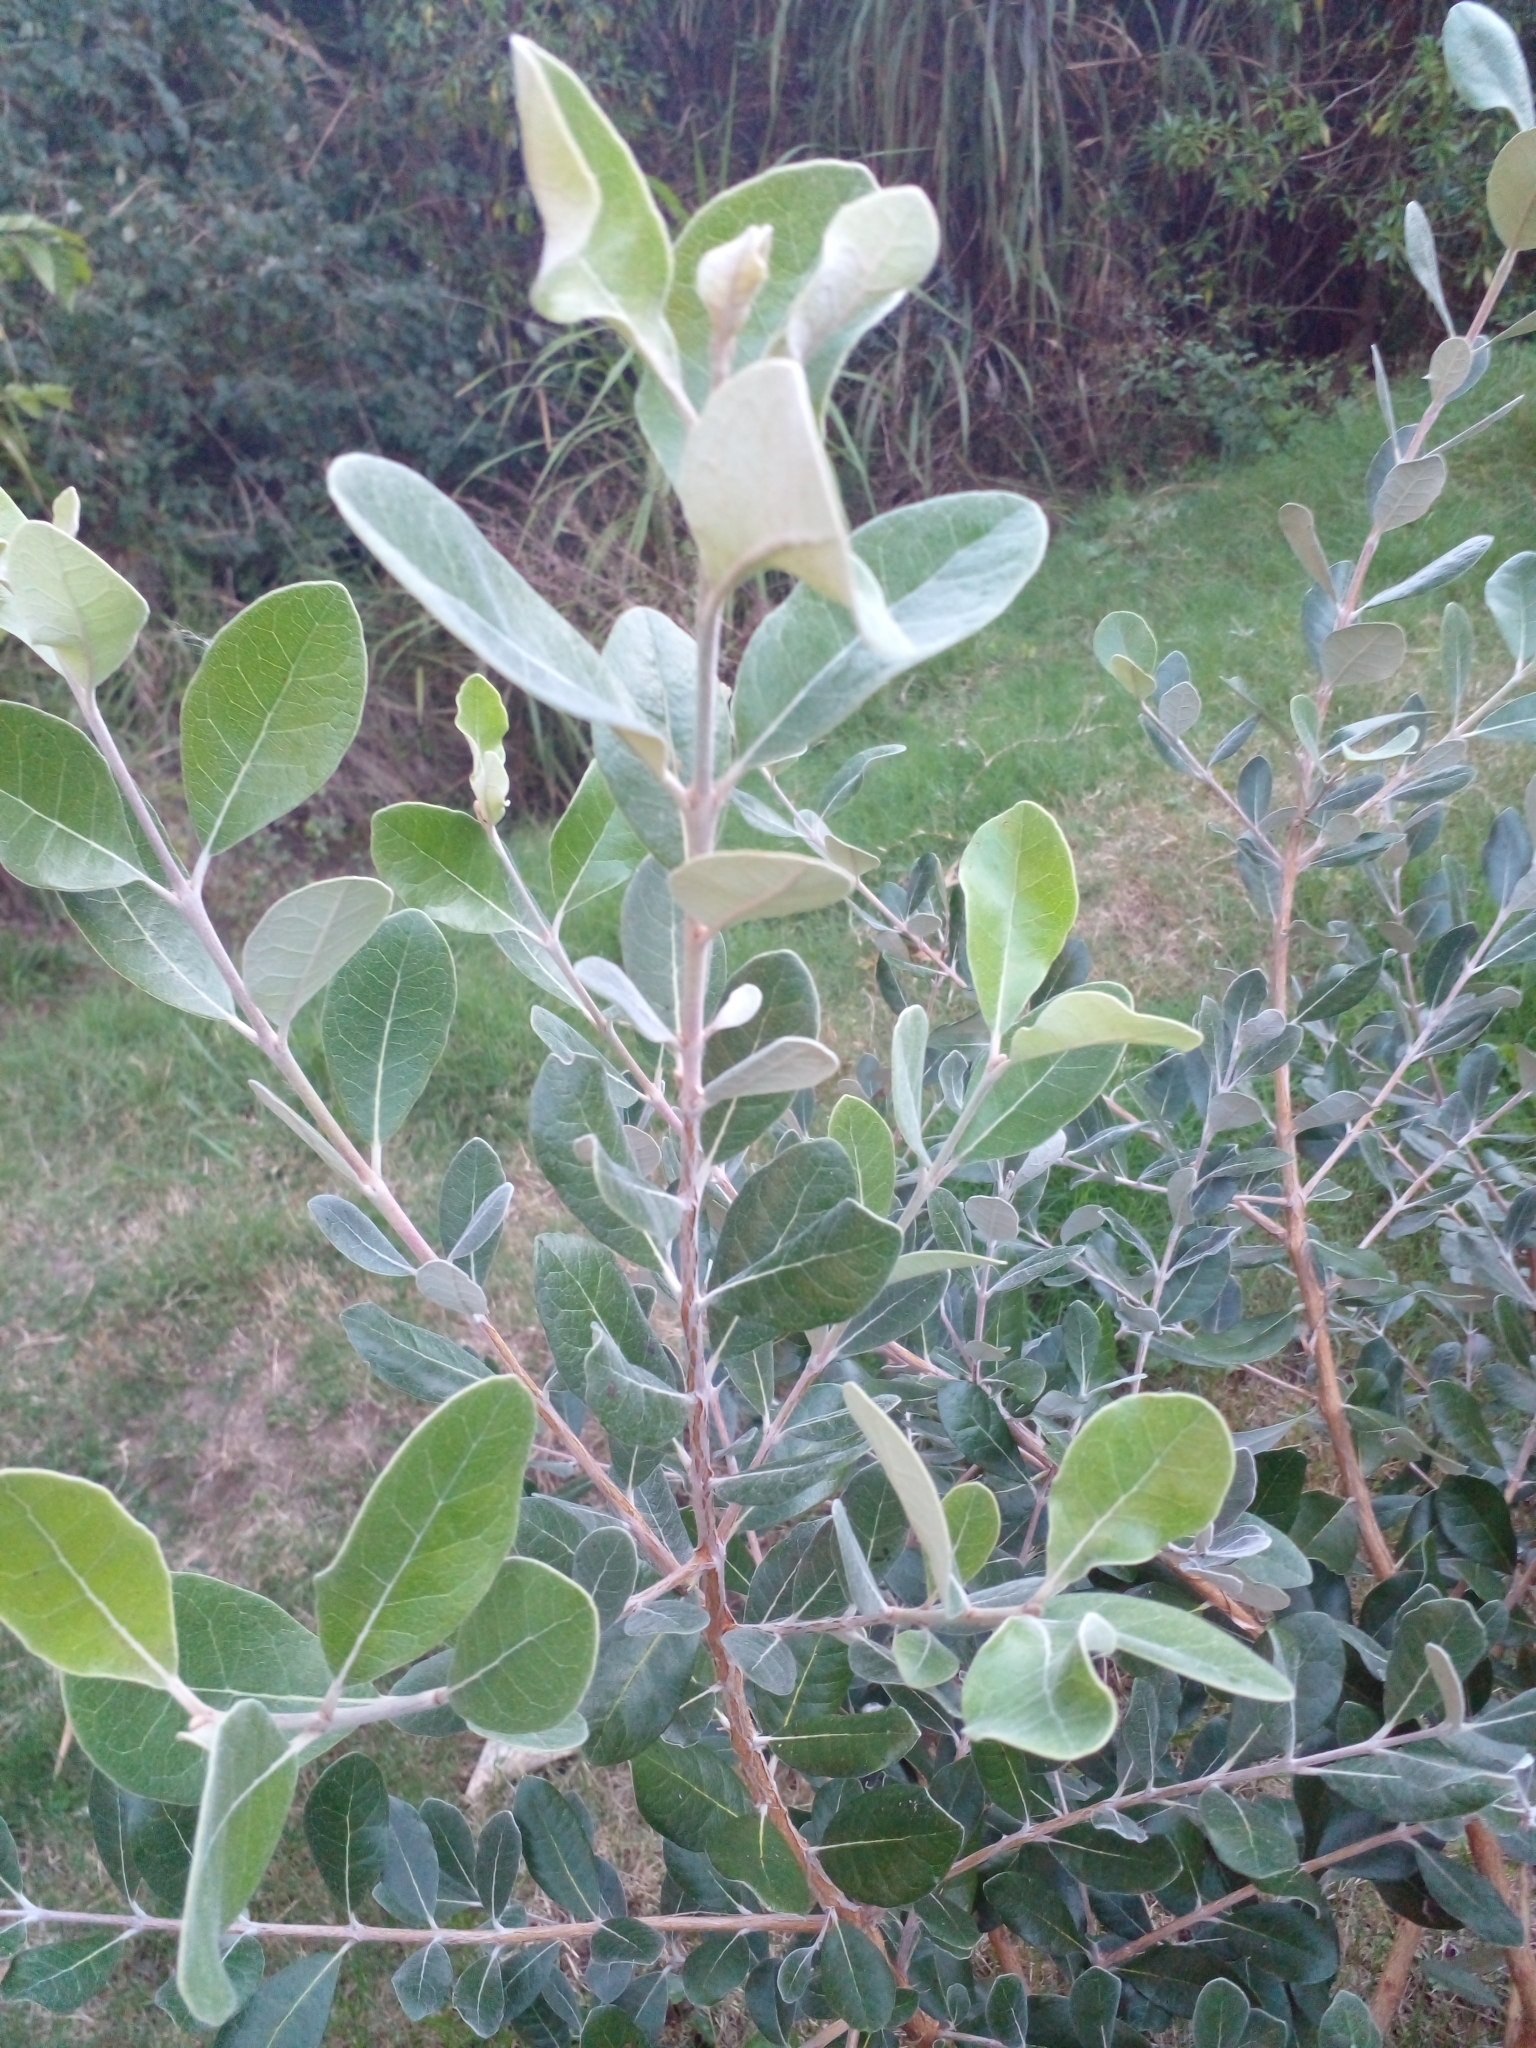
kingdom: Plantae
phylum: Tracheophyta
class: Magnoliopsida
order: Myrtales
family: Myrtaceae
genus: Feijoa
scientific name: Feijoa sellowiana
